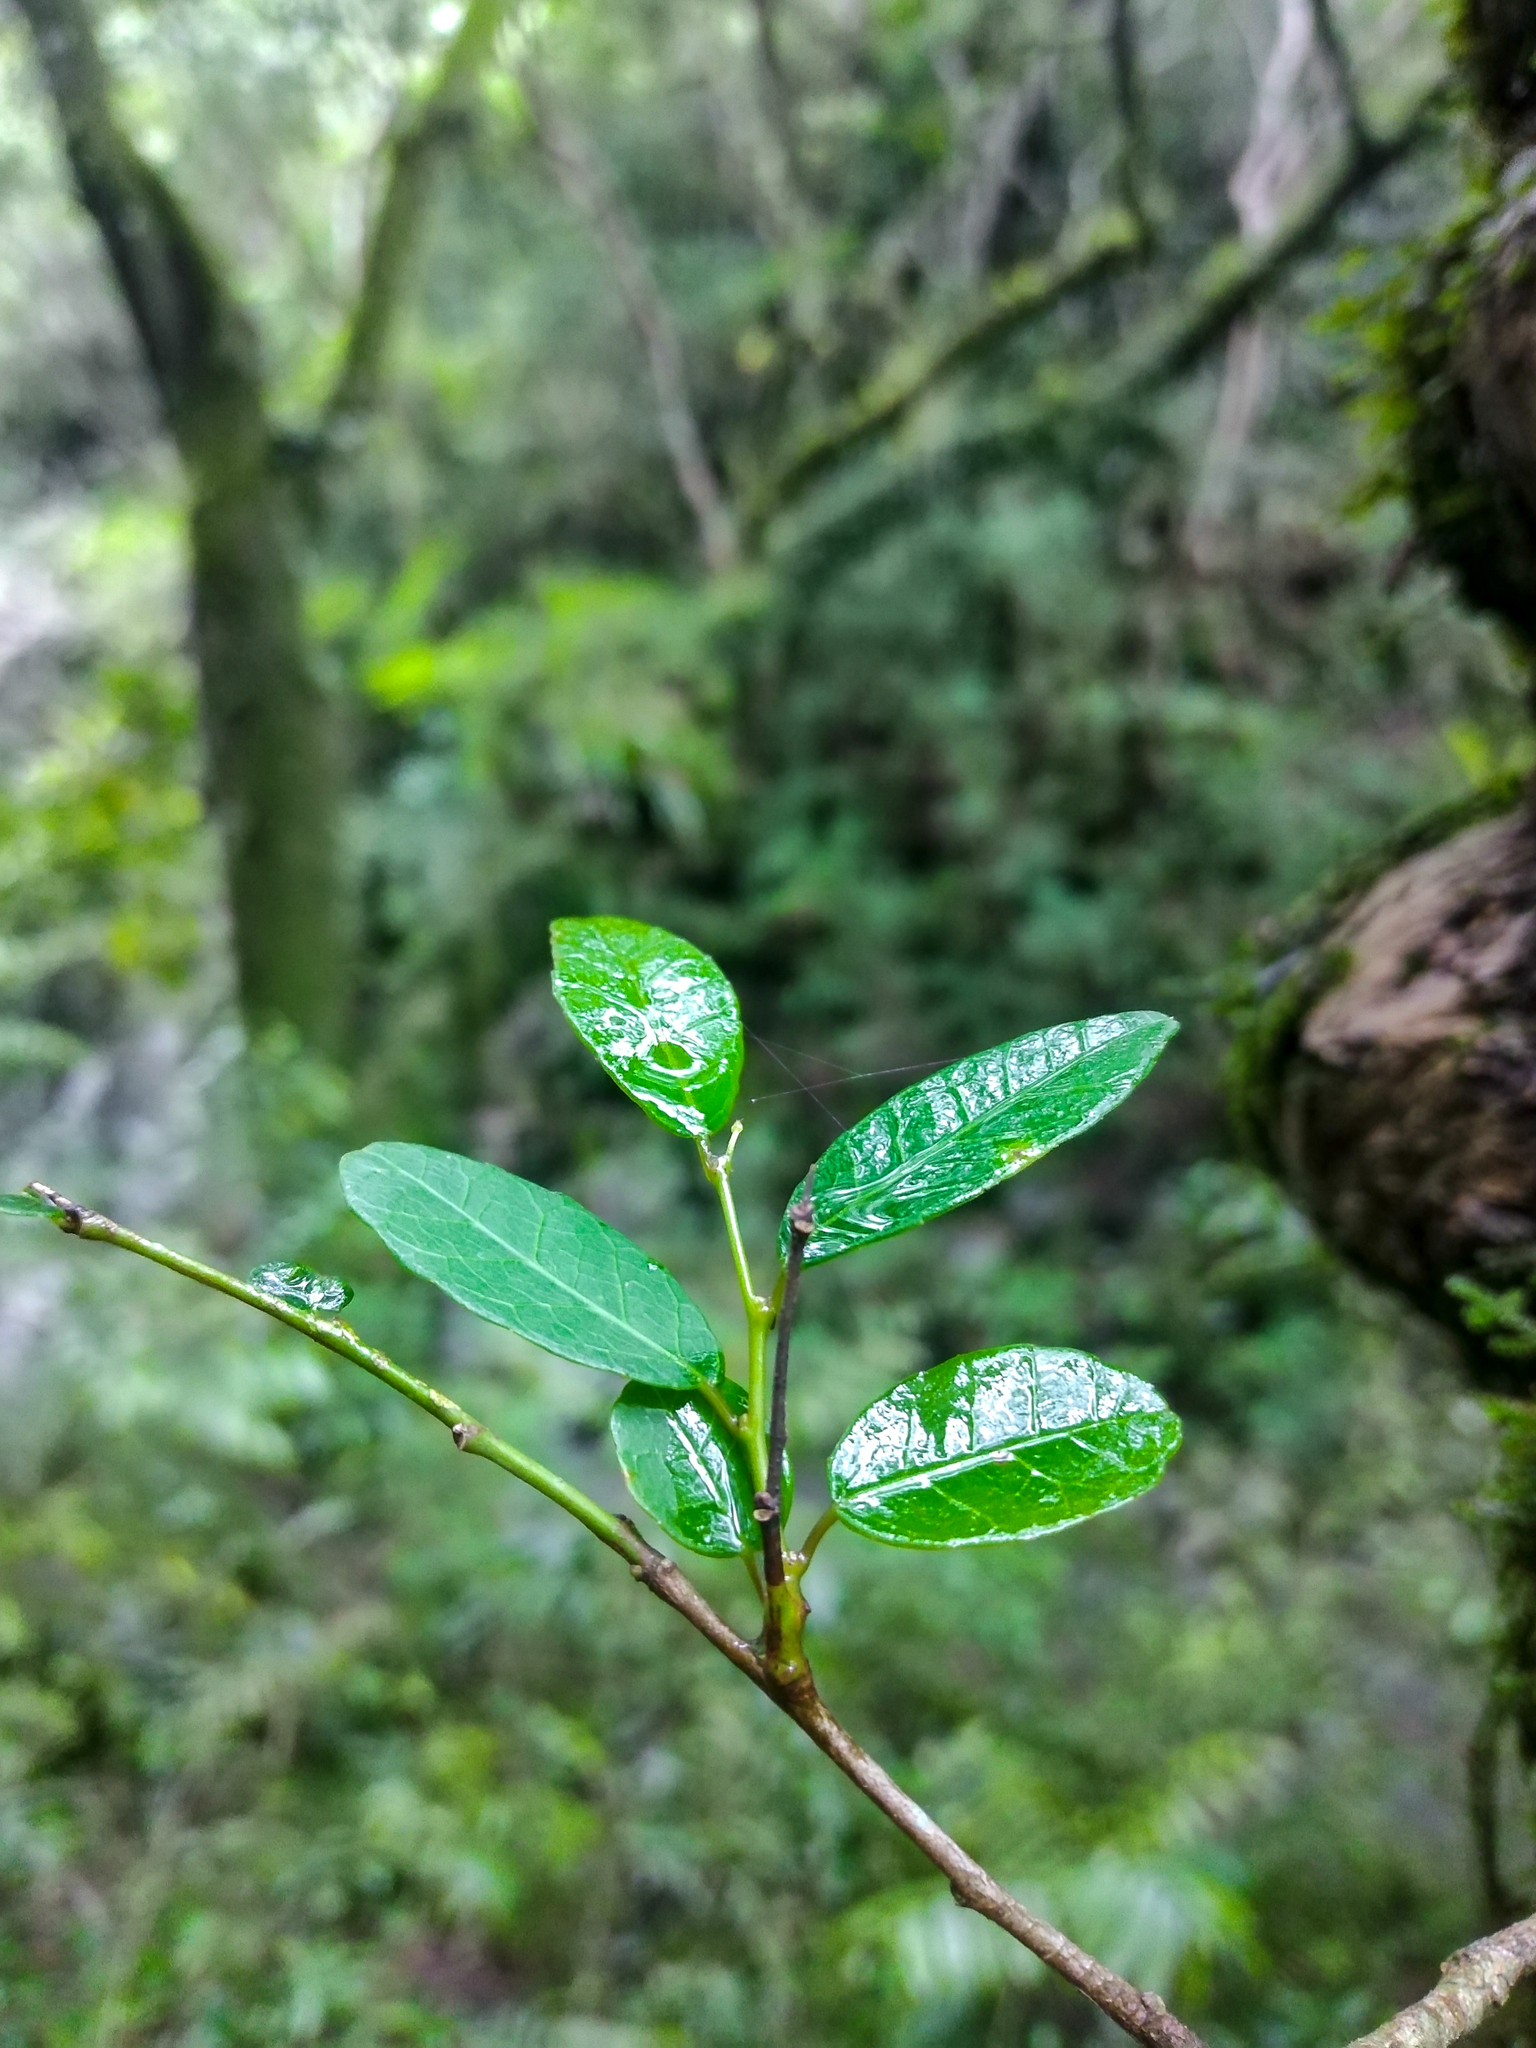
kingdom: Plantae
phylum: Tracheophyta
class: Magnoliopsida
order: Malpighiales
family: Euphorbiaceae
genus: Sebastiania
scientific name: Sebastiania klotzschiana
